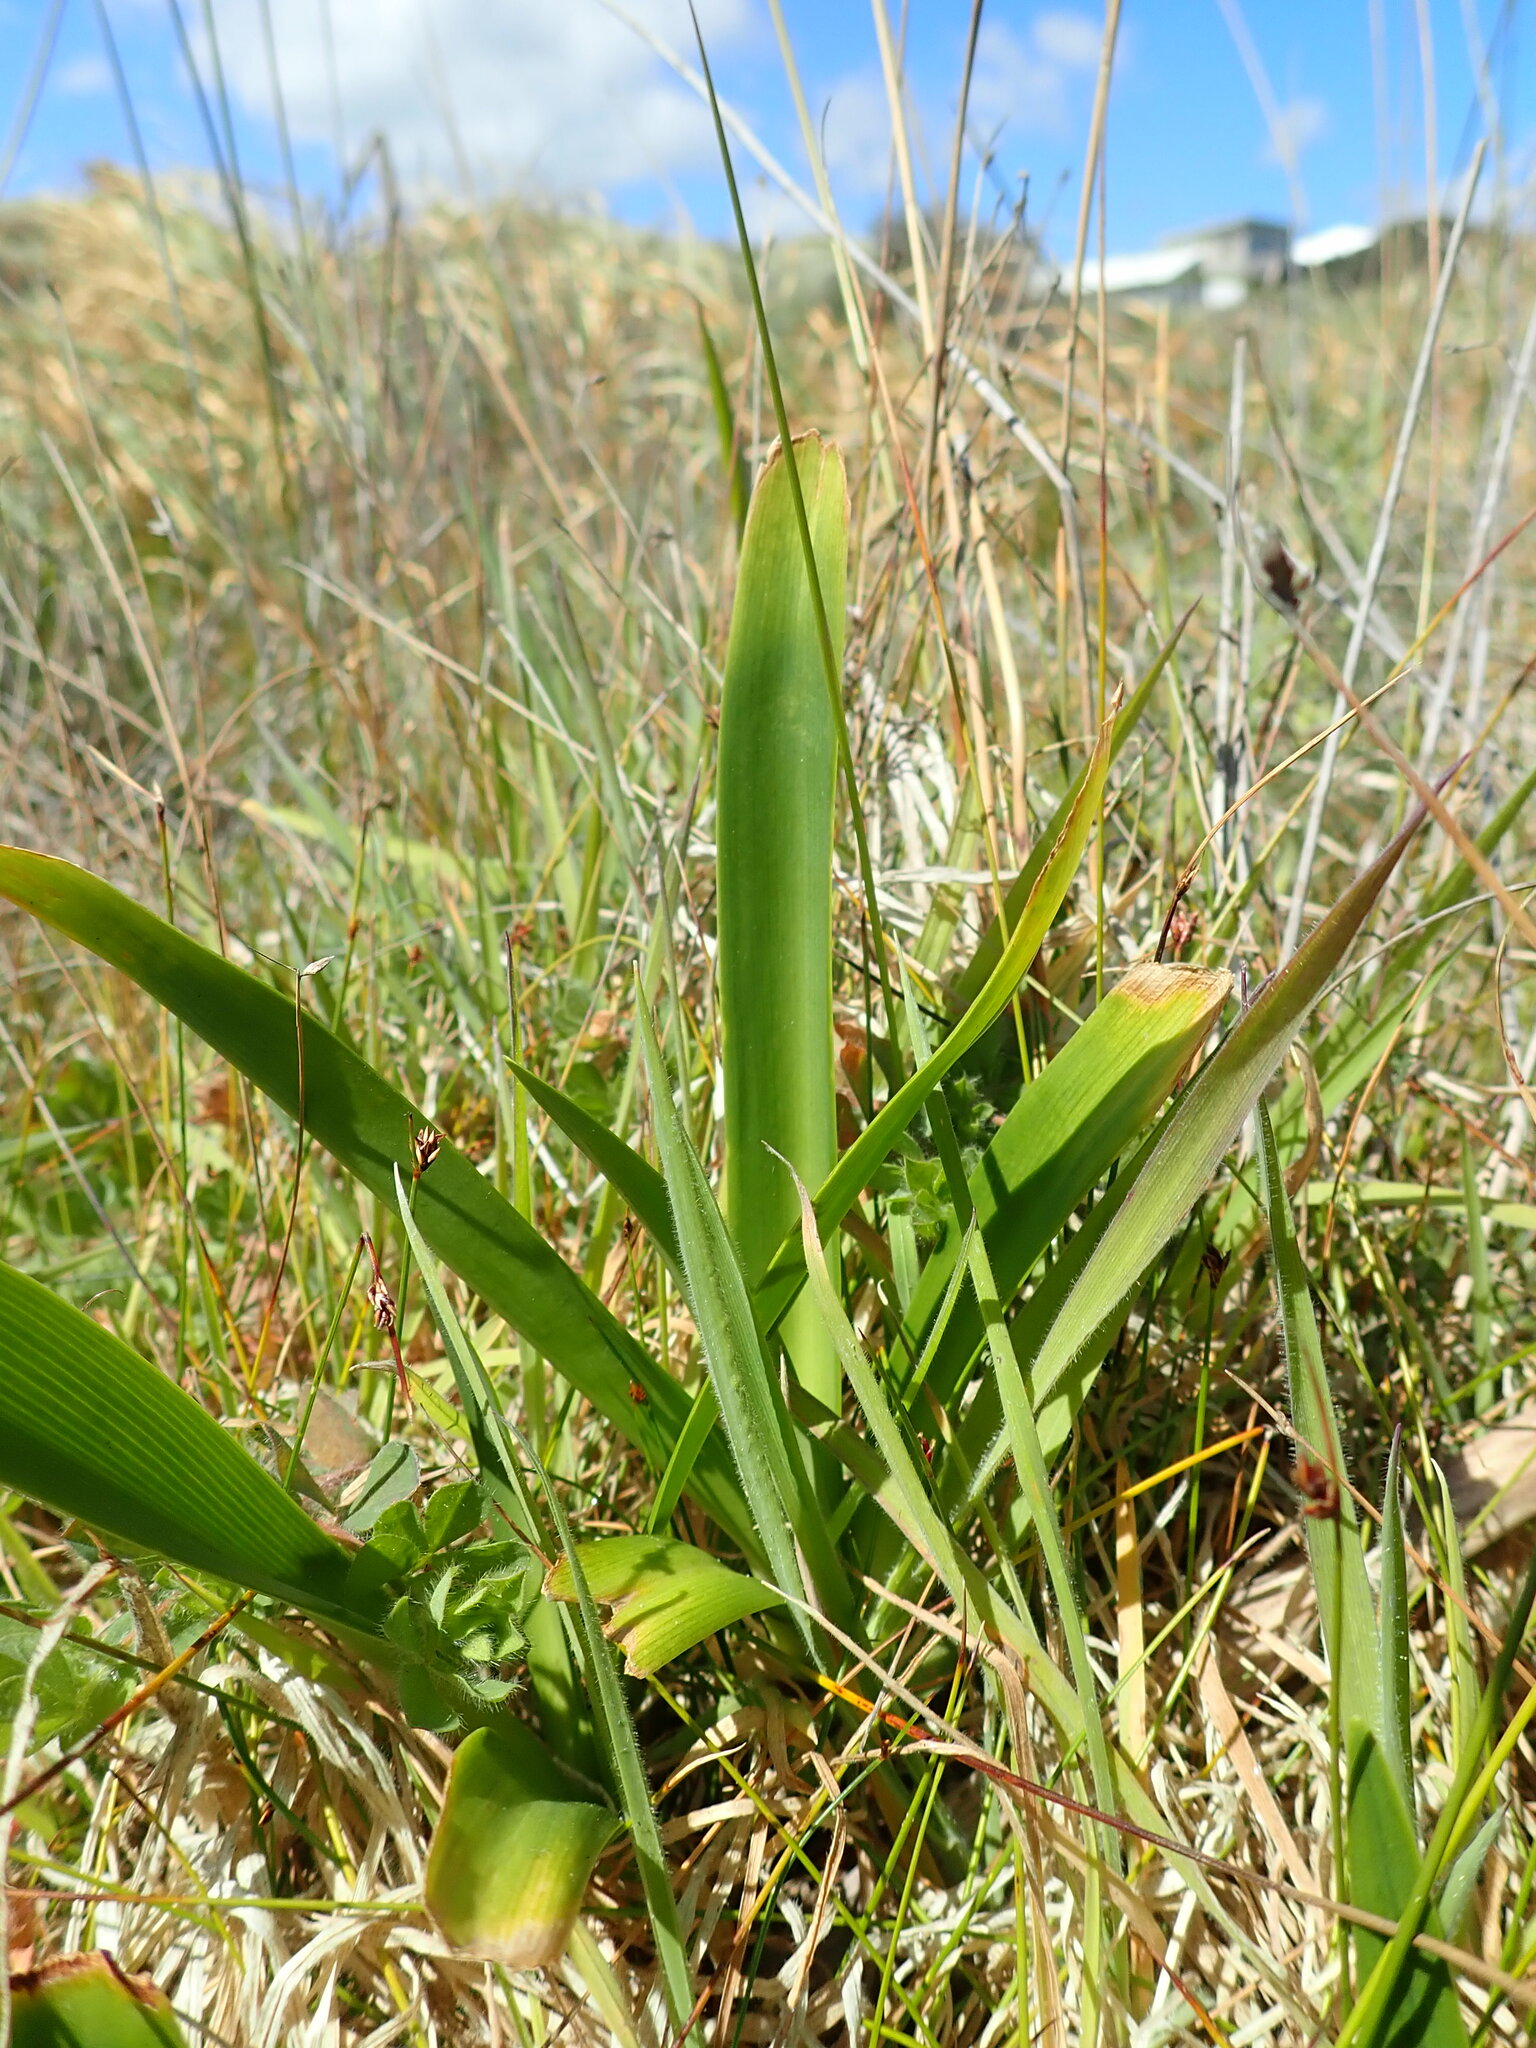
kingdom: Plantae
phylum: Tracheophyta
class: Liliopsida
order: Asparagales
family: Amaryllidaceae
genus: Agapanthus
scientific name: Agapanthus praecox
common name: African-lily
